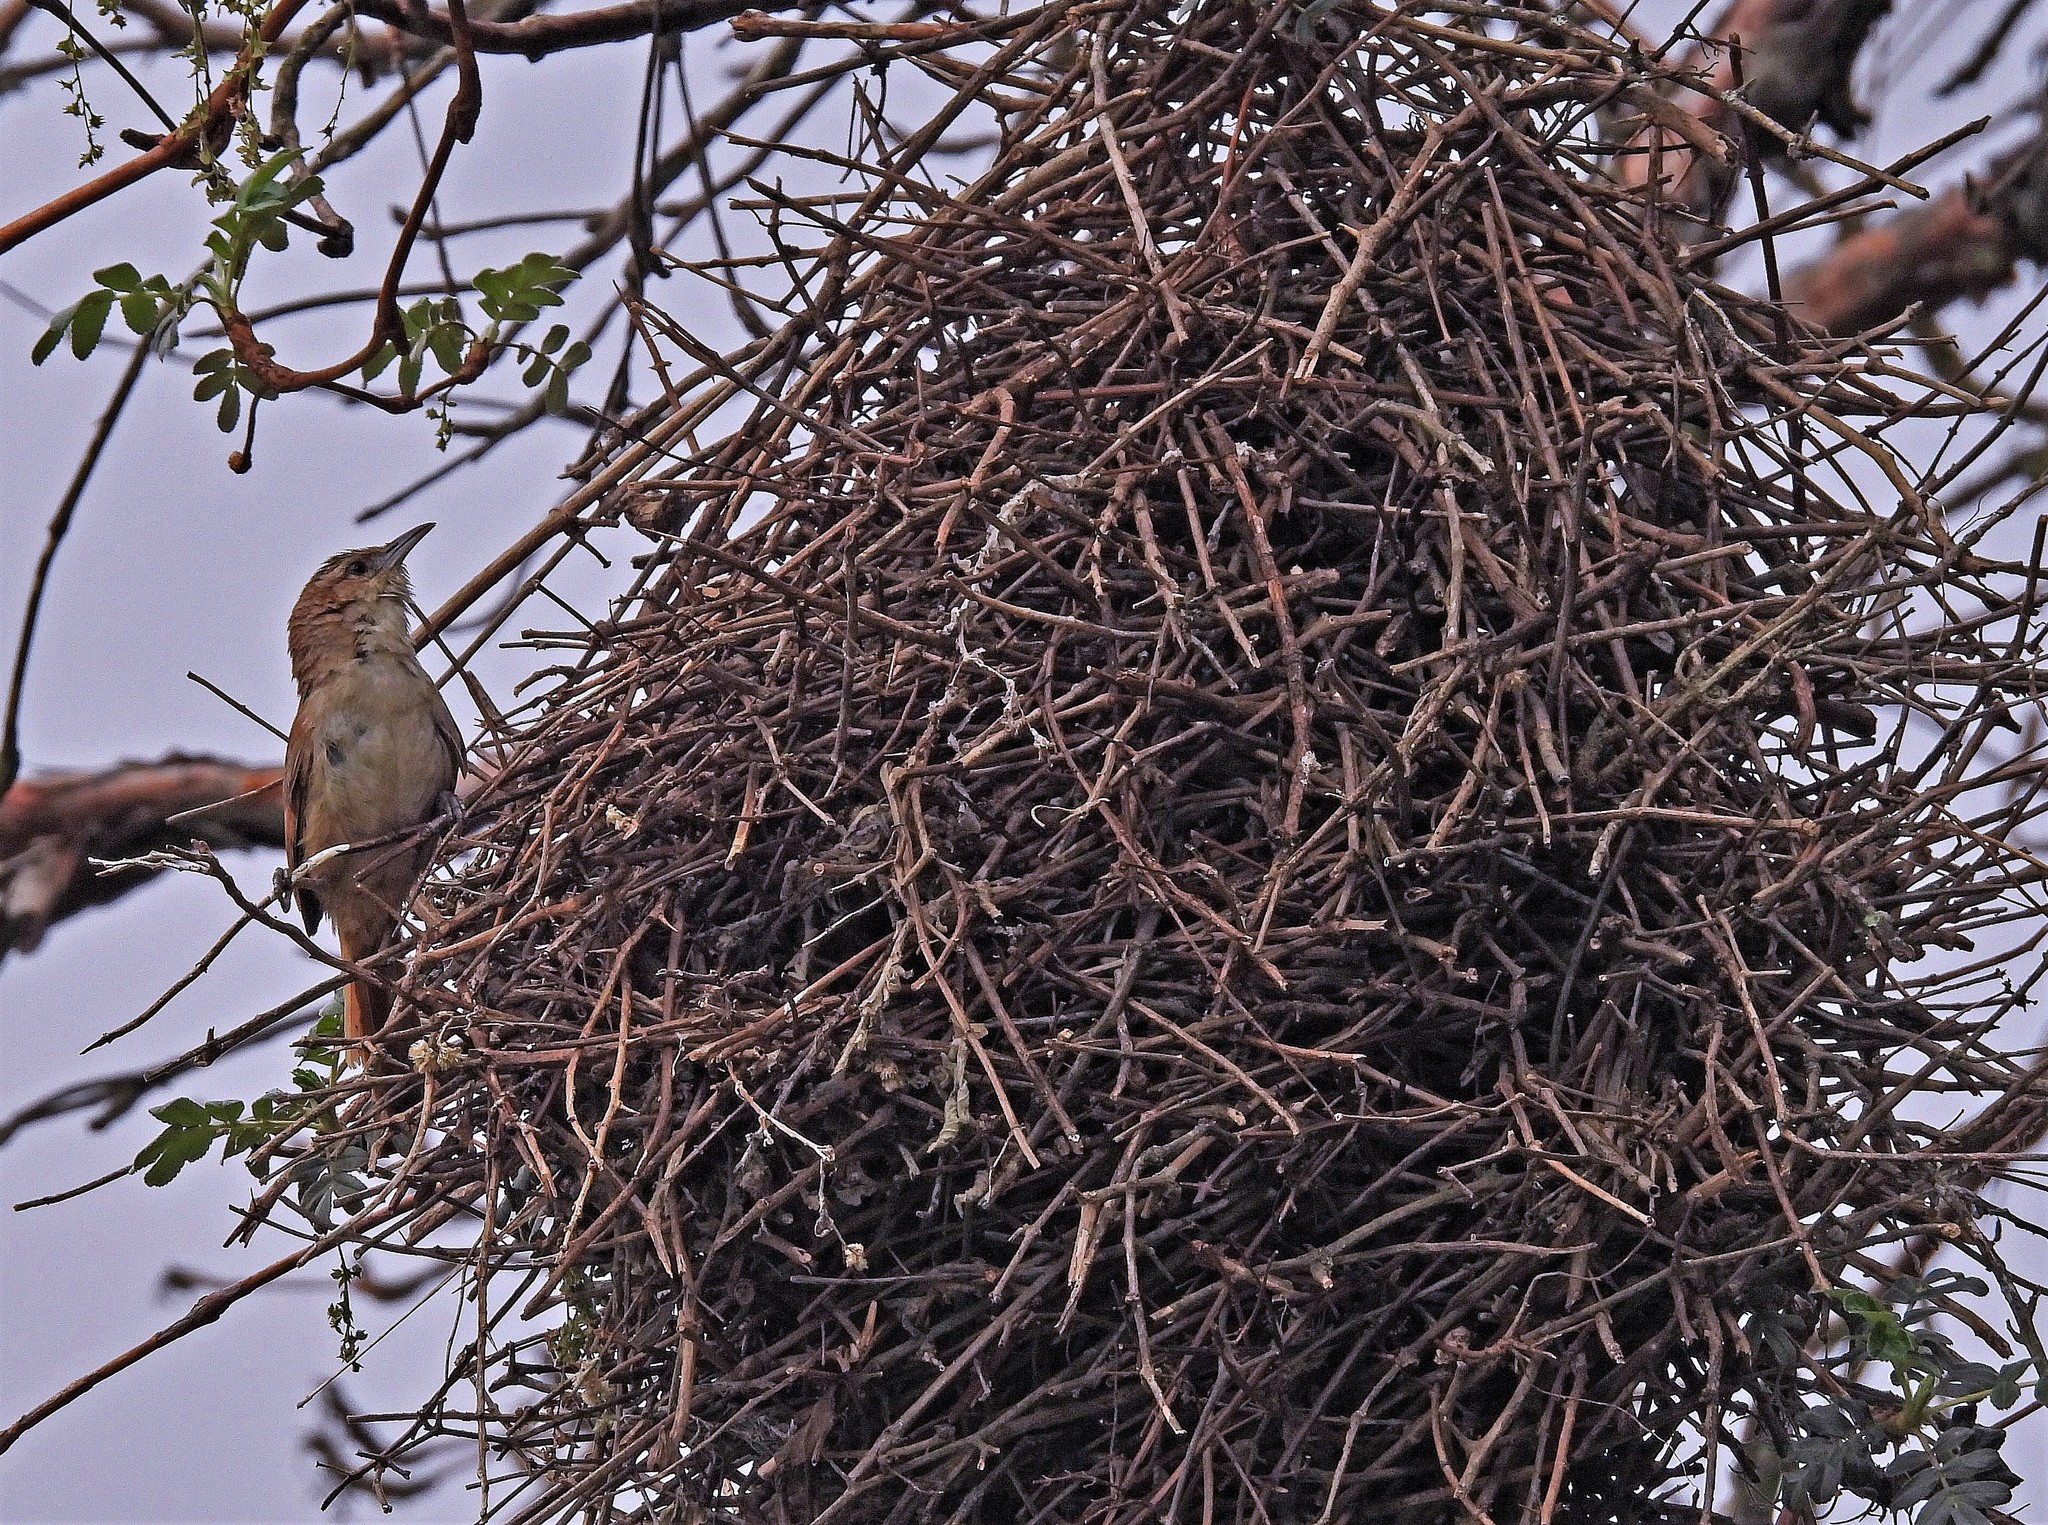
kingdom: Animalia
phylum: Chordata
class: Aves
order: Passeriformes
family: Furnariidae
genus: Phacellodomus
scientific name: Phacellodomus striaticeps
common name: Streak-fronted thornbird
